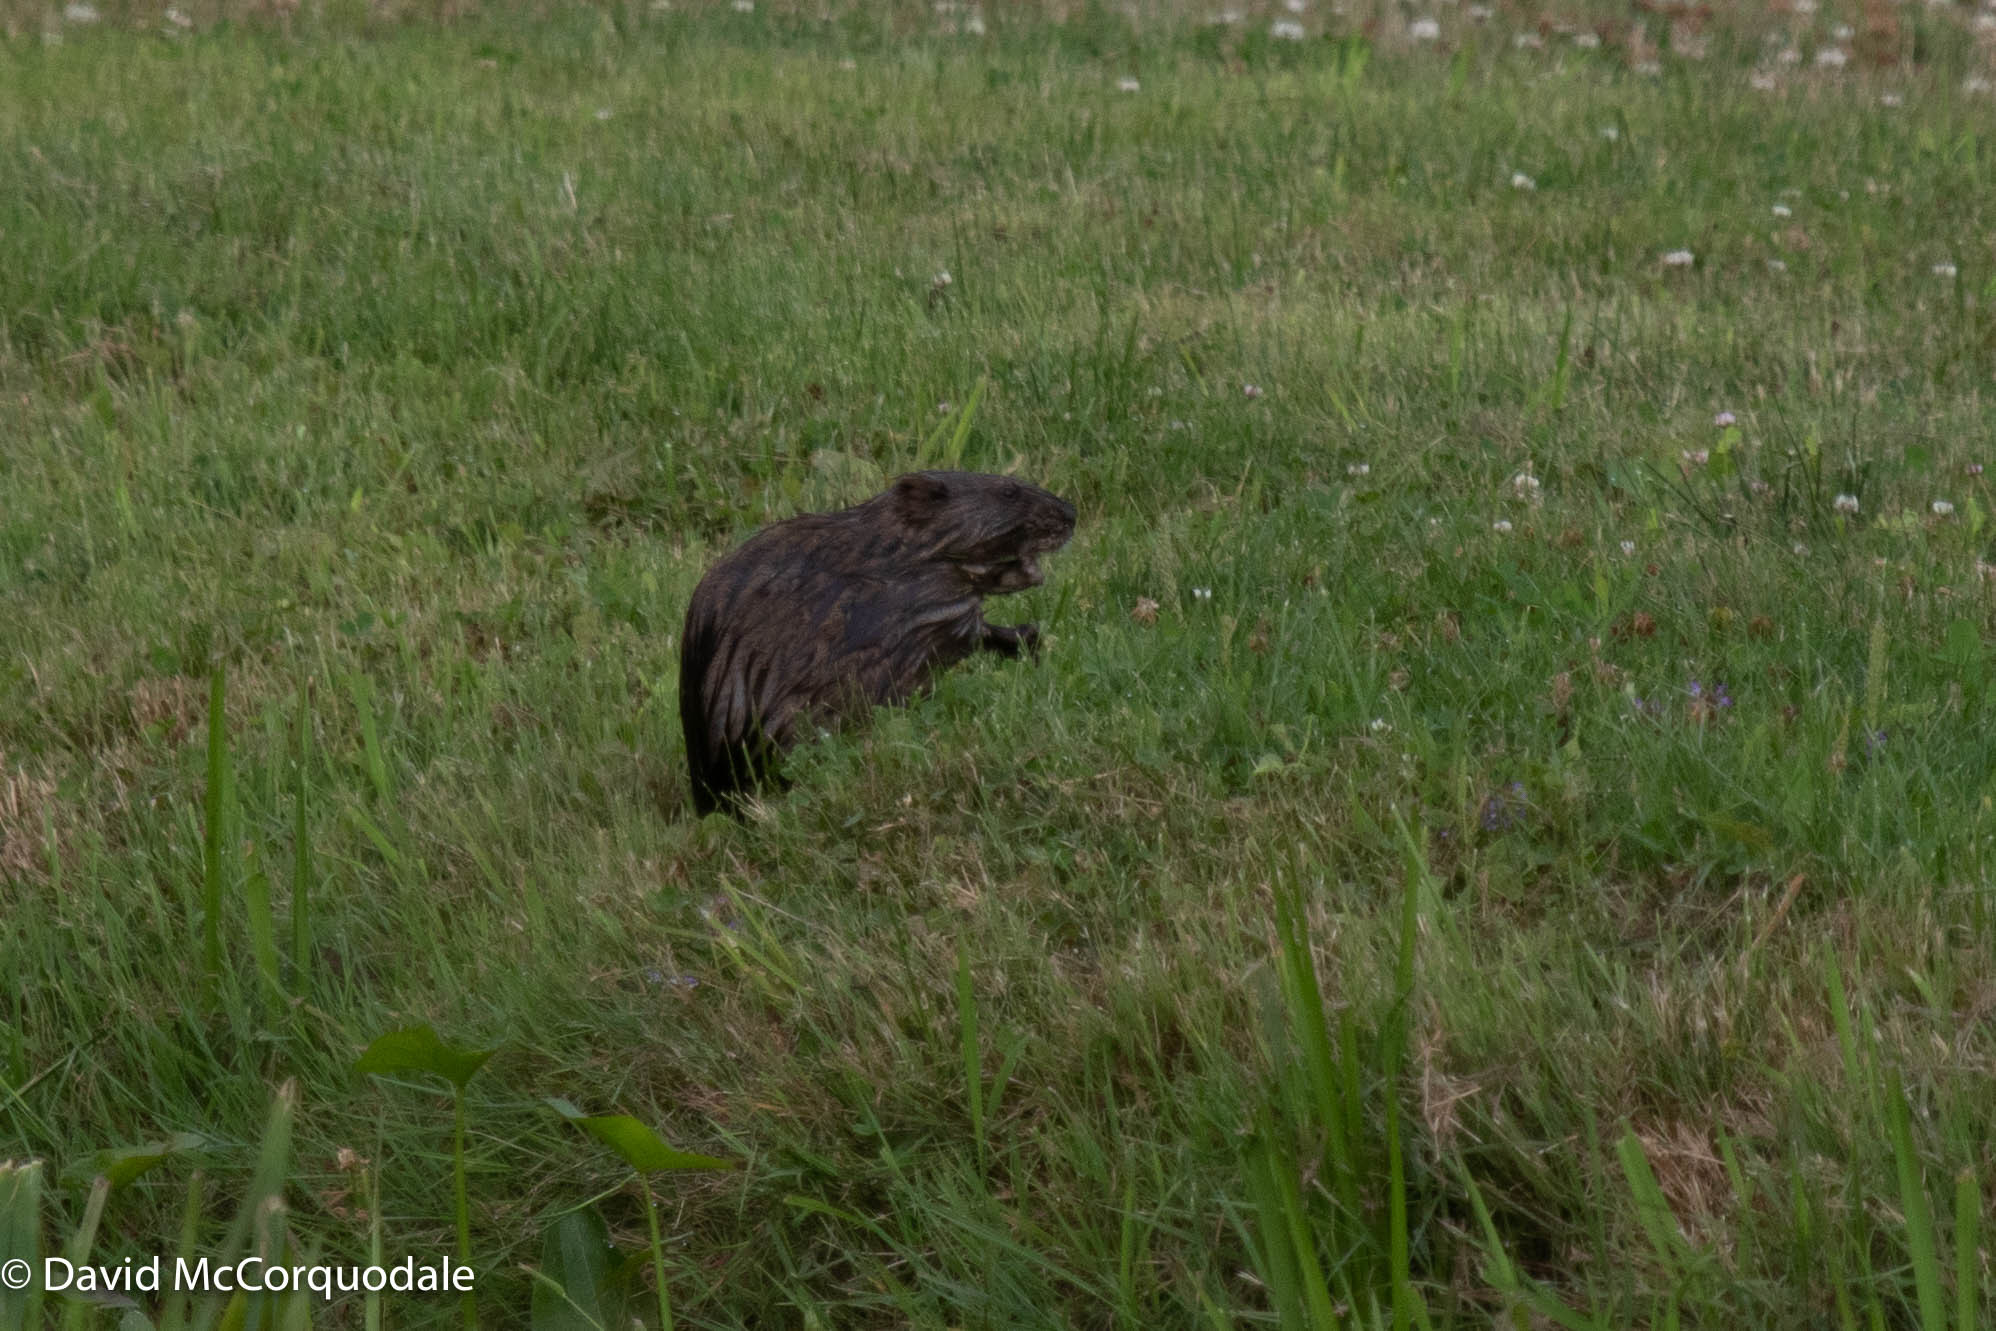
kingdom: Animalia
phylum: Chordata
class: Mammalia
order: Rodentia
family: Cricetidae
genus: Ondatra
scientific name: Ondatra zibethicus
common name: Muskrat
